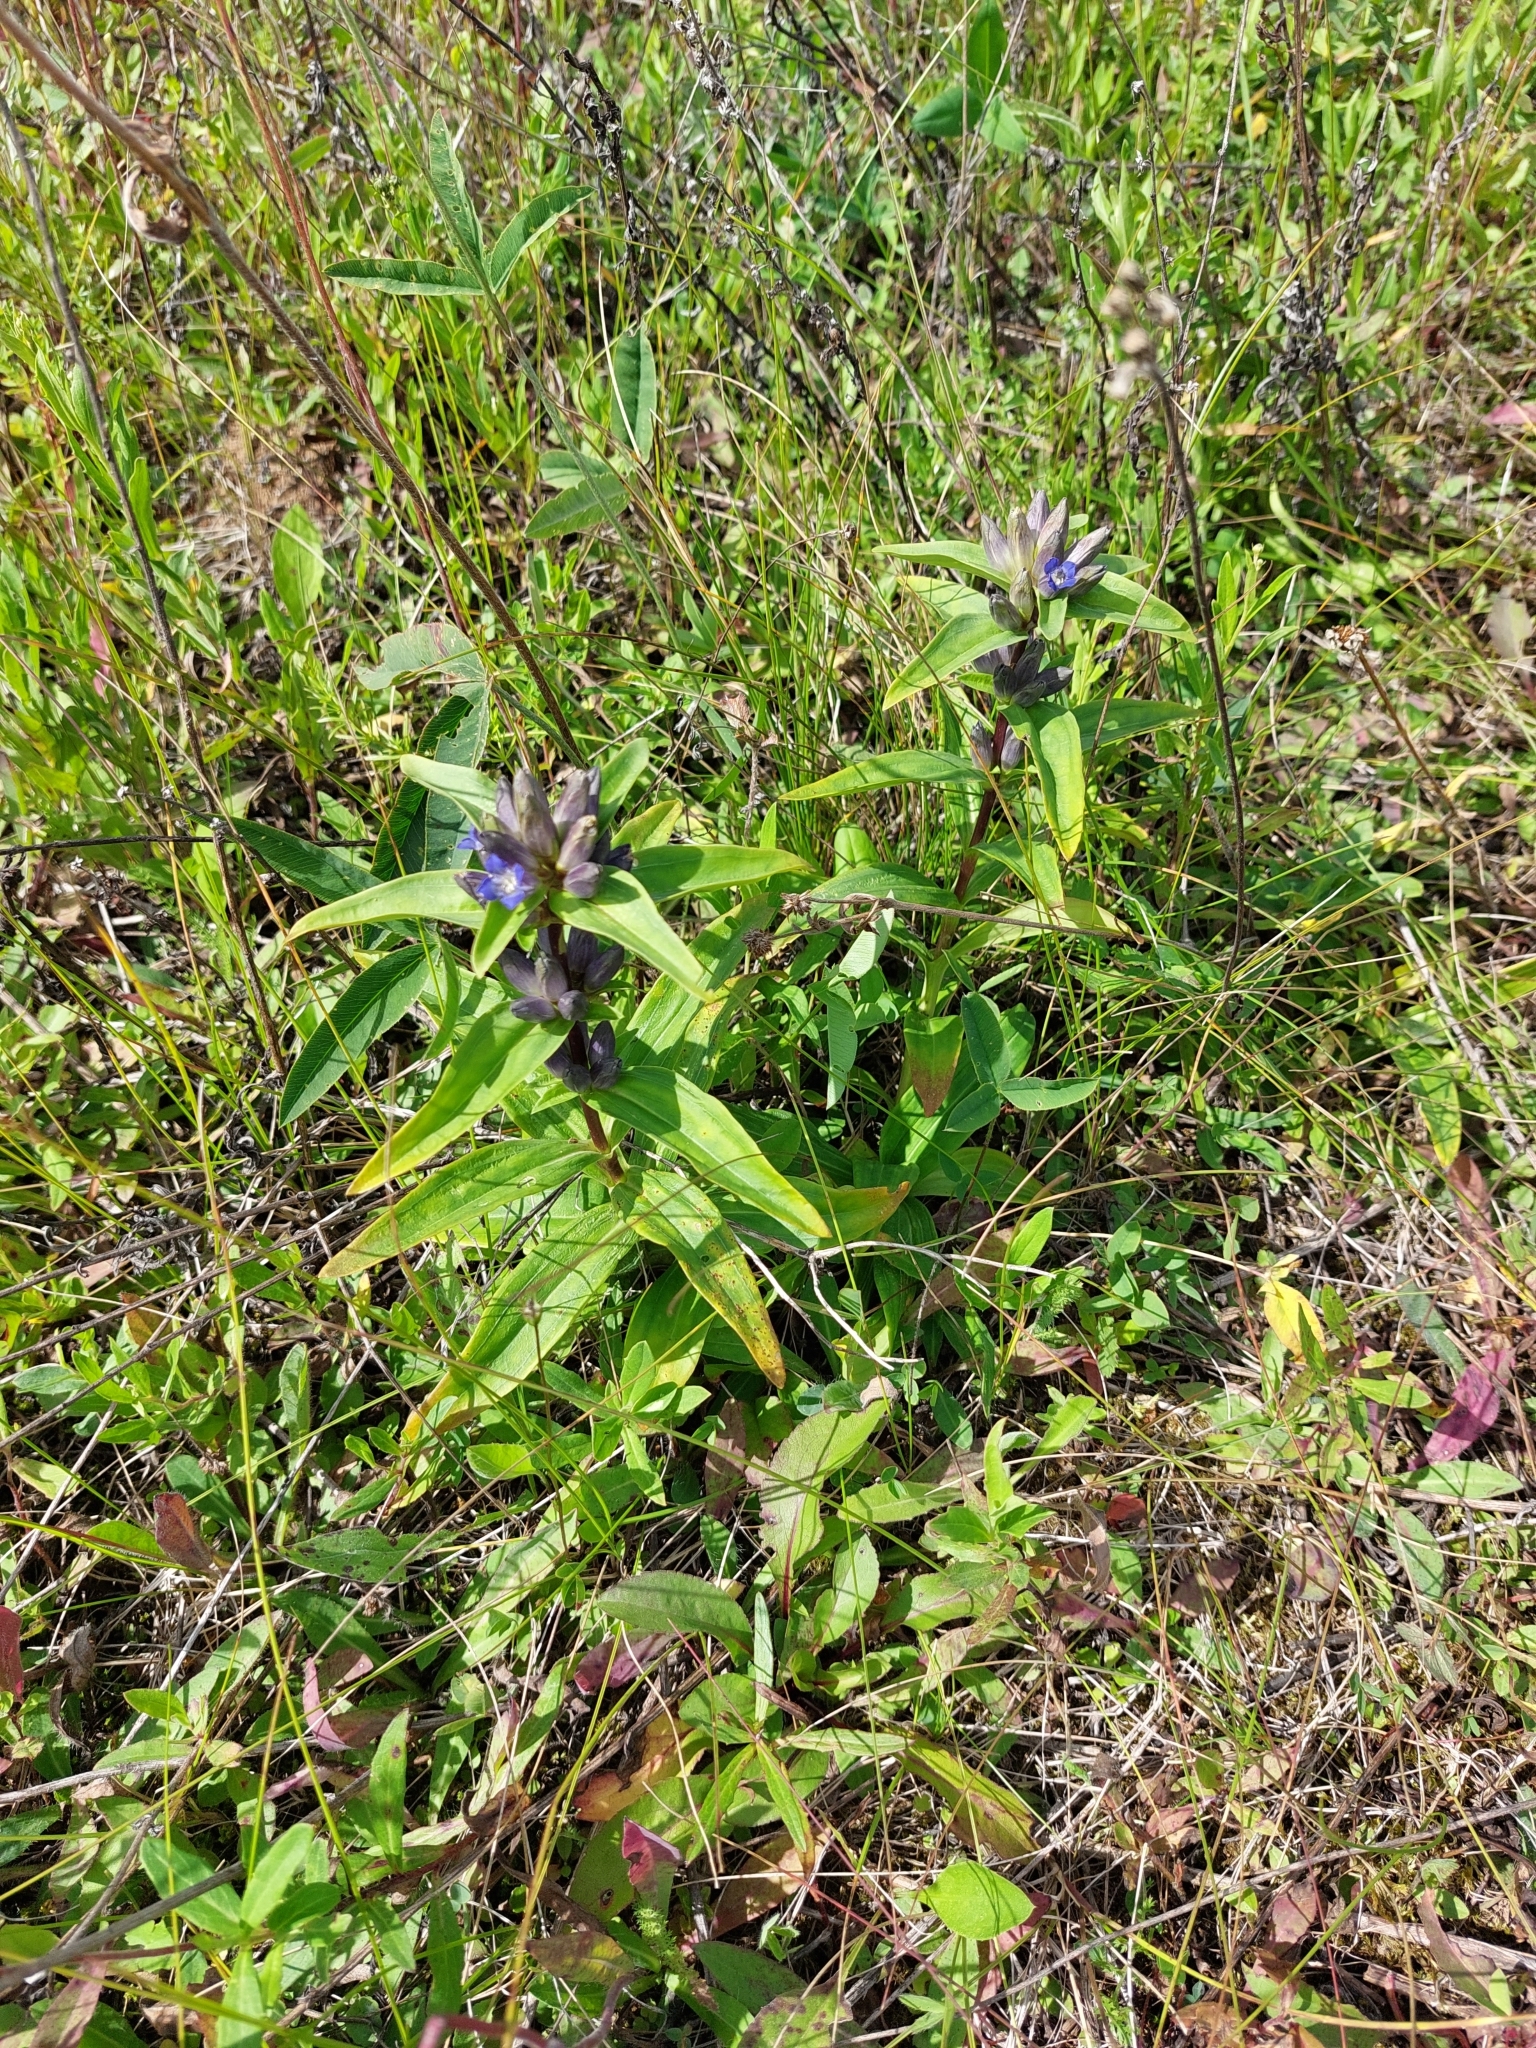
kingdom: Plantae
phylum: Tracheophyta
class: Magnoliopsida
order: Gentianales
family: Gentianaceae
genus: Gentiana
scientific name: Gentiana cruciata
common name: Cross gentian
